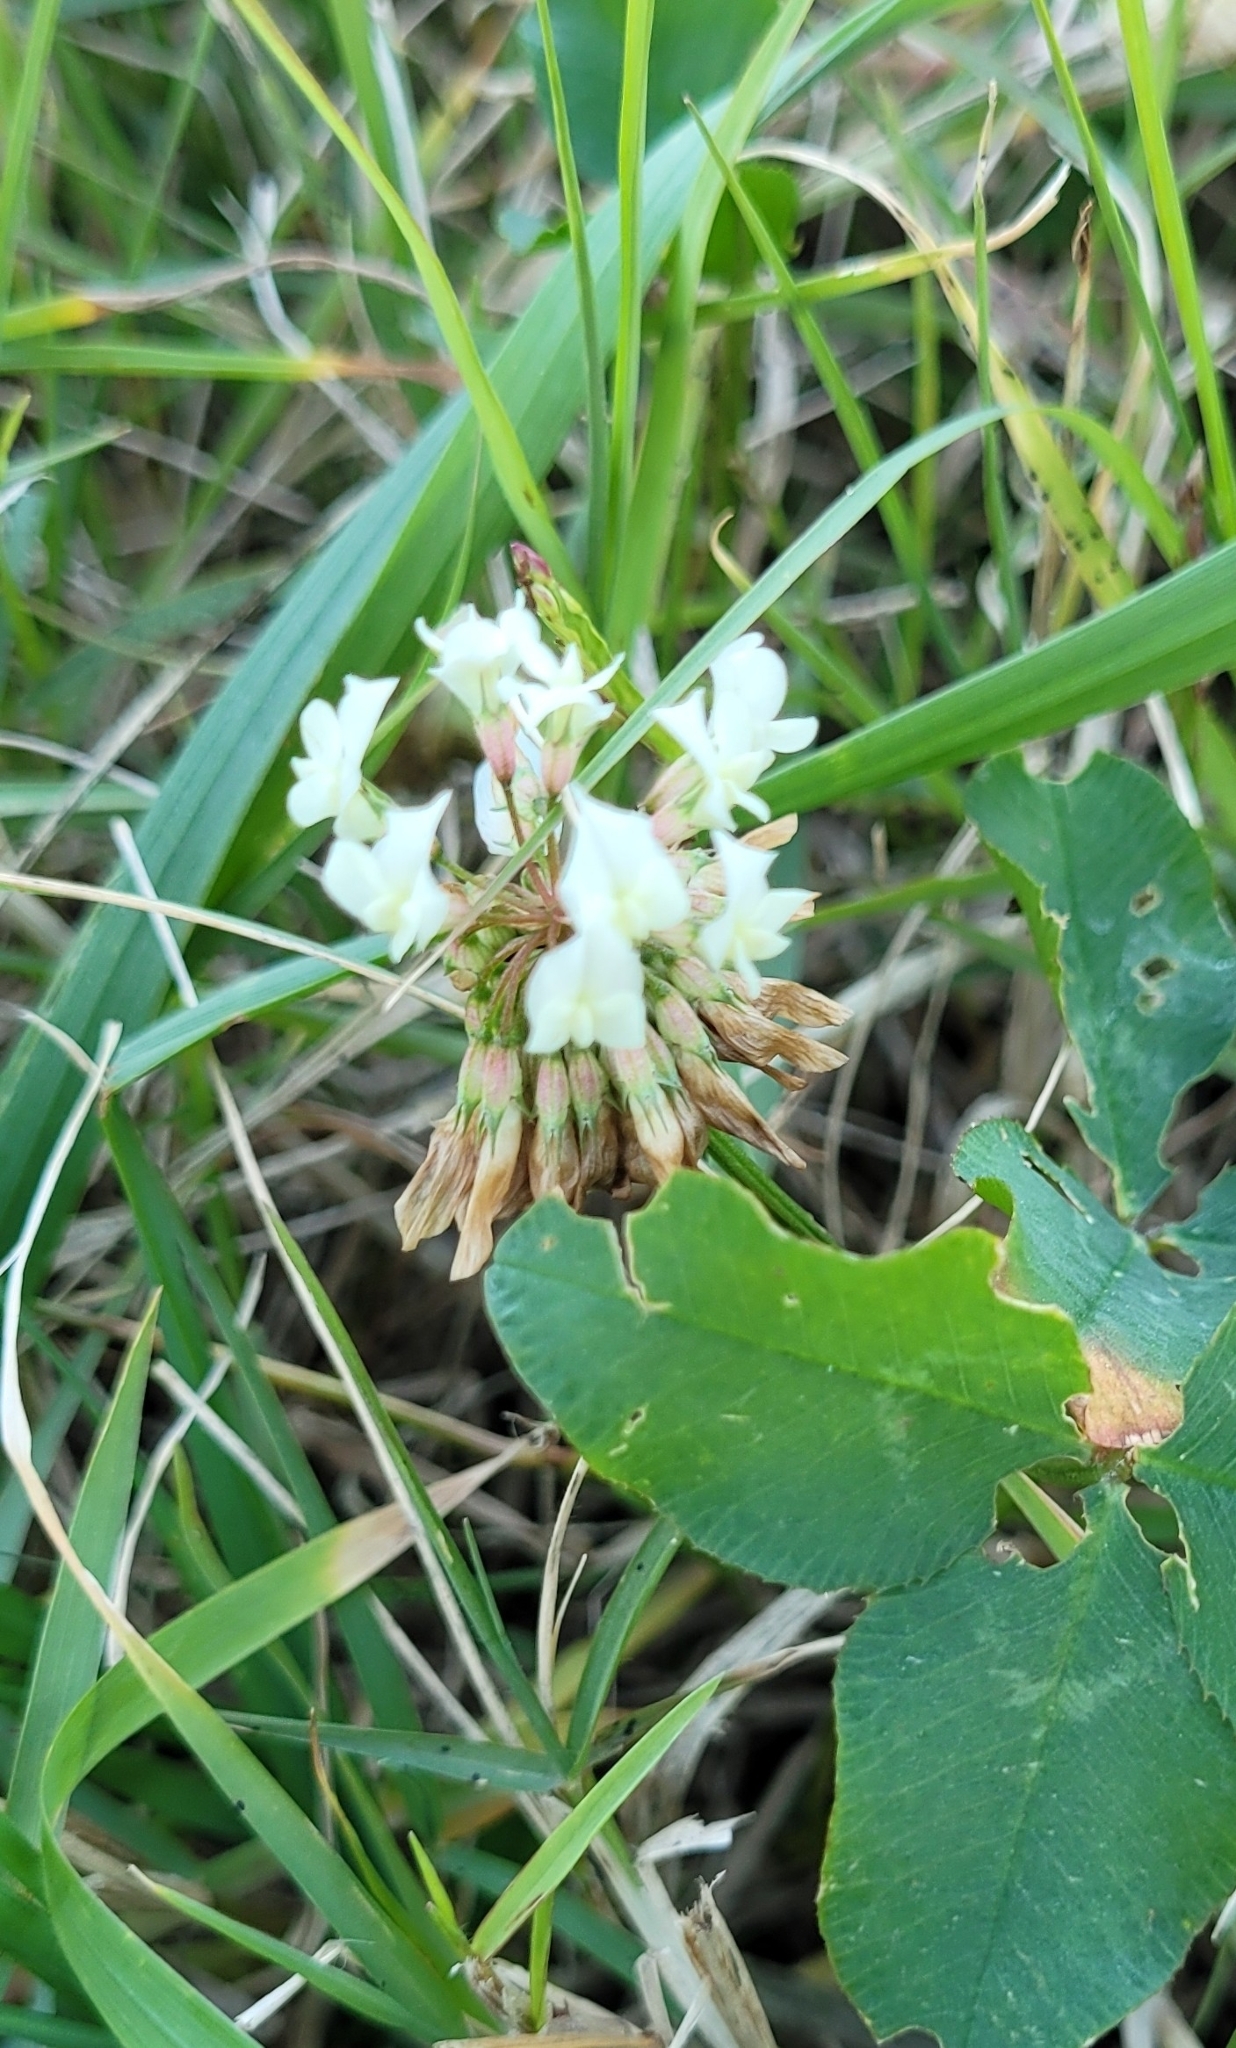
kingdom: Plantae
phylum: Tracheophyta
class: Magnoliopsida
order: Fabales
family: Fabaceae
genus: Trifolium
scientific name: Trifolium repens
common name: White clover
